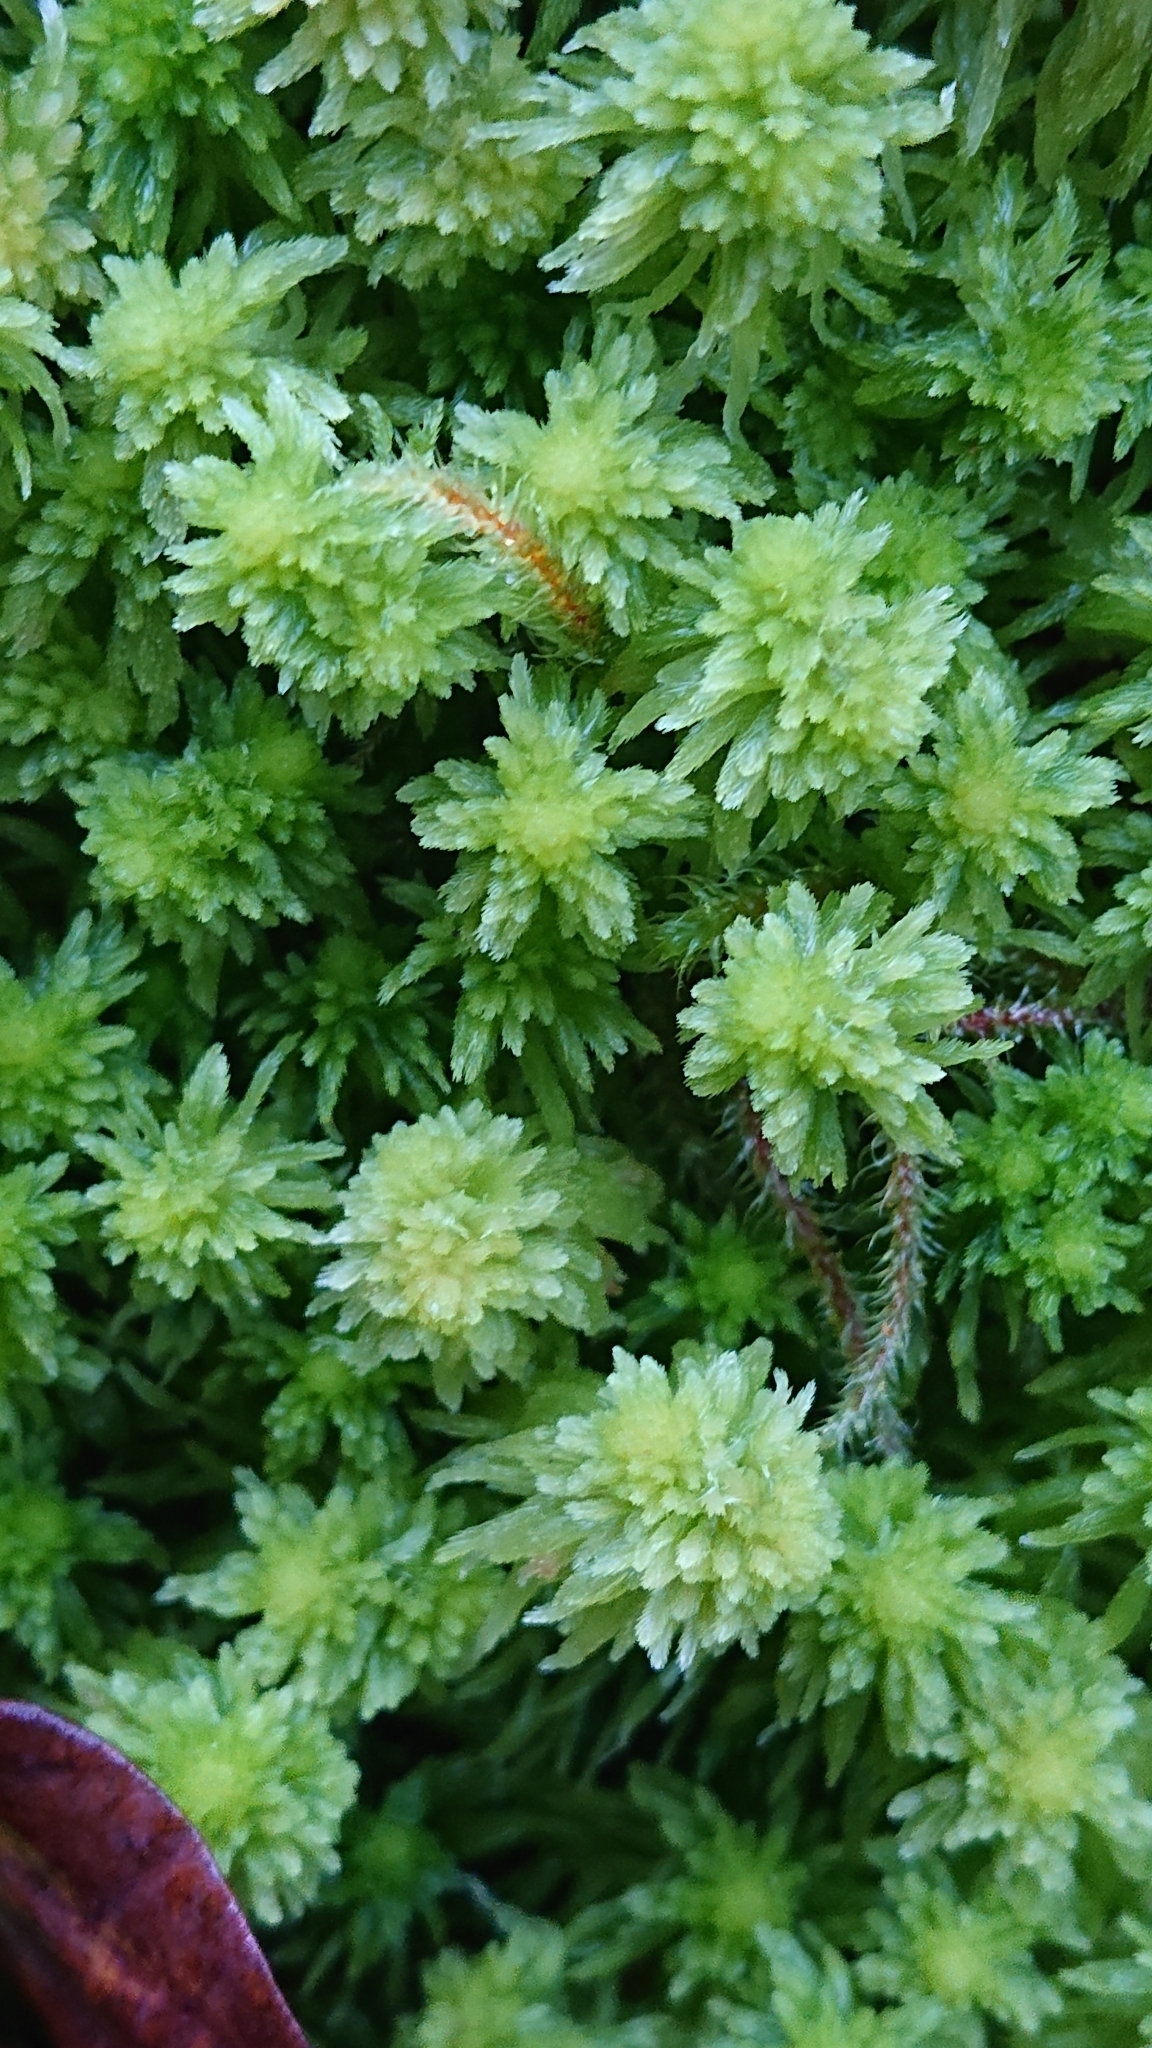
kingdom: Plantae
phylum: Bryophyta
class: Sphagnopsida
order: Sphagnales
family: Sphagnaceae
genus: Sphagnum
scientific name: Sphagnum quinquefarium
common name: Five-ranked peat moss
